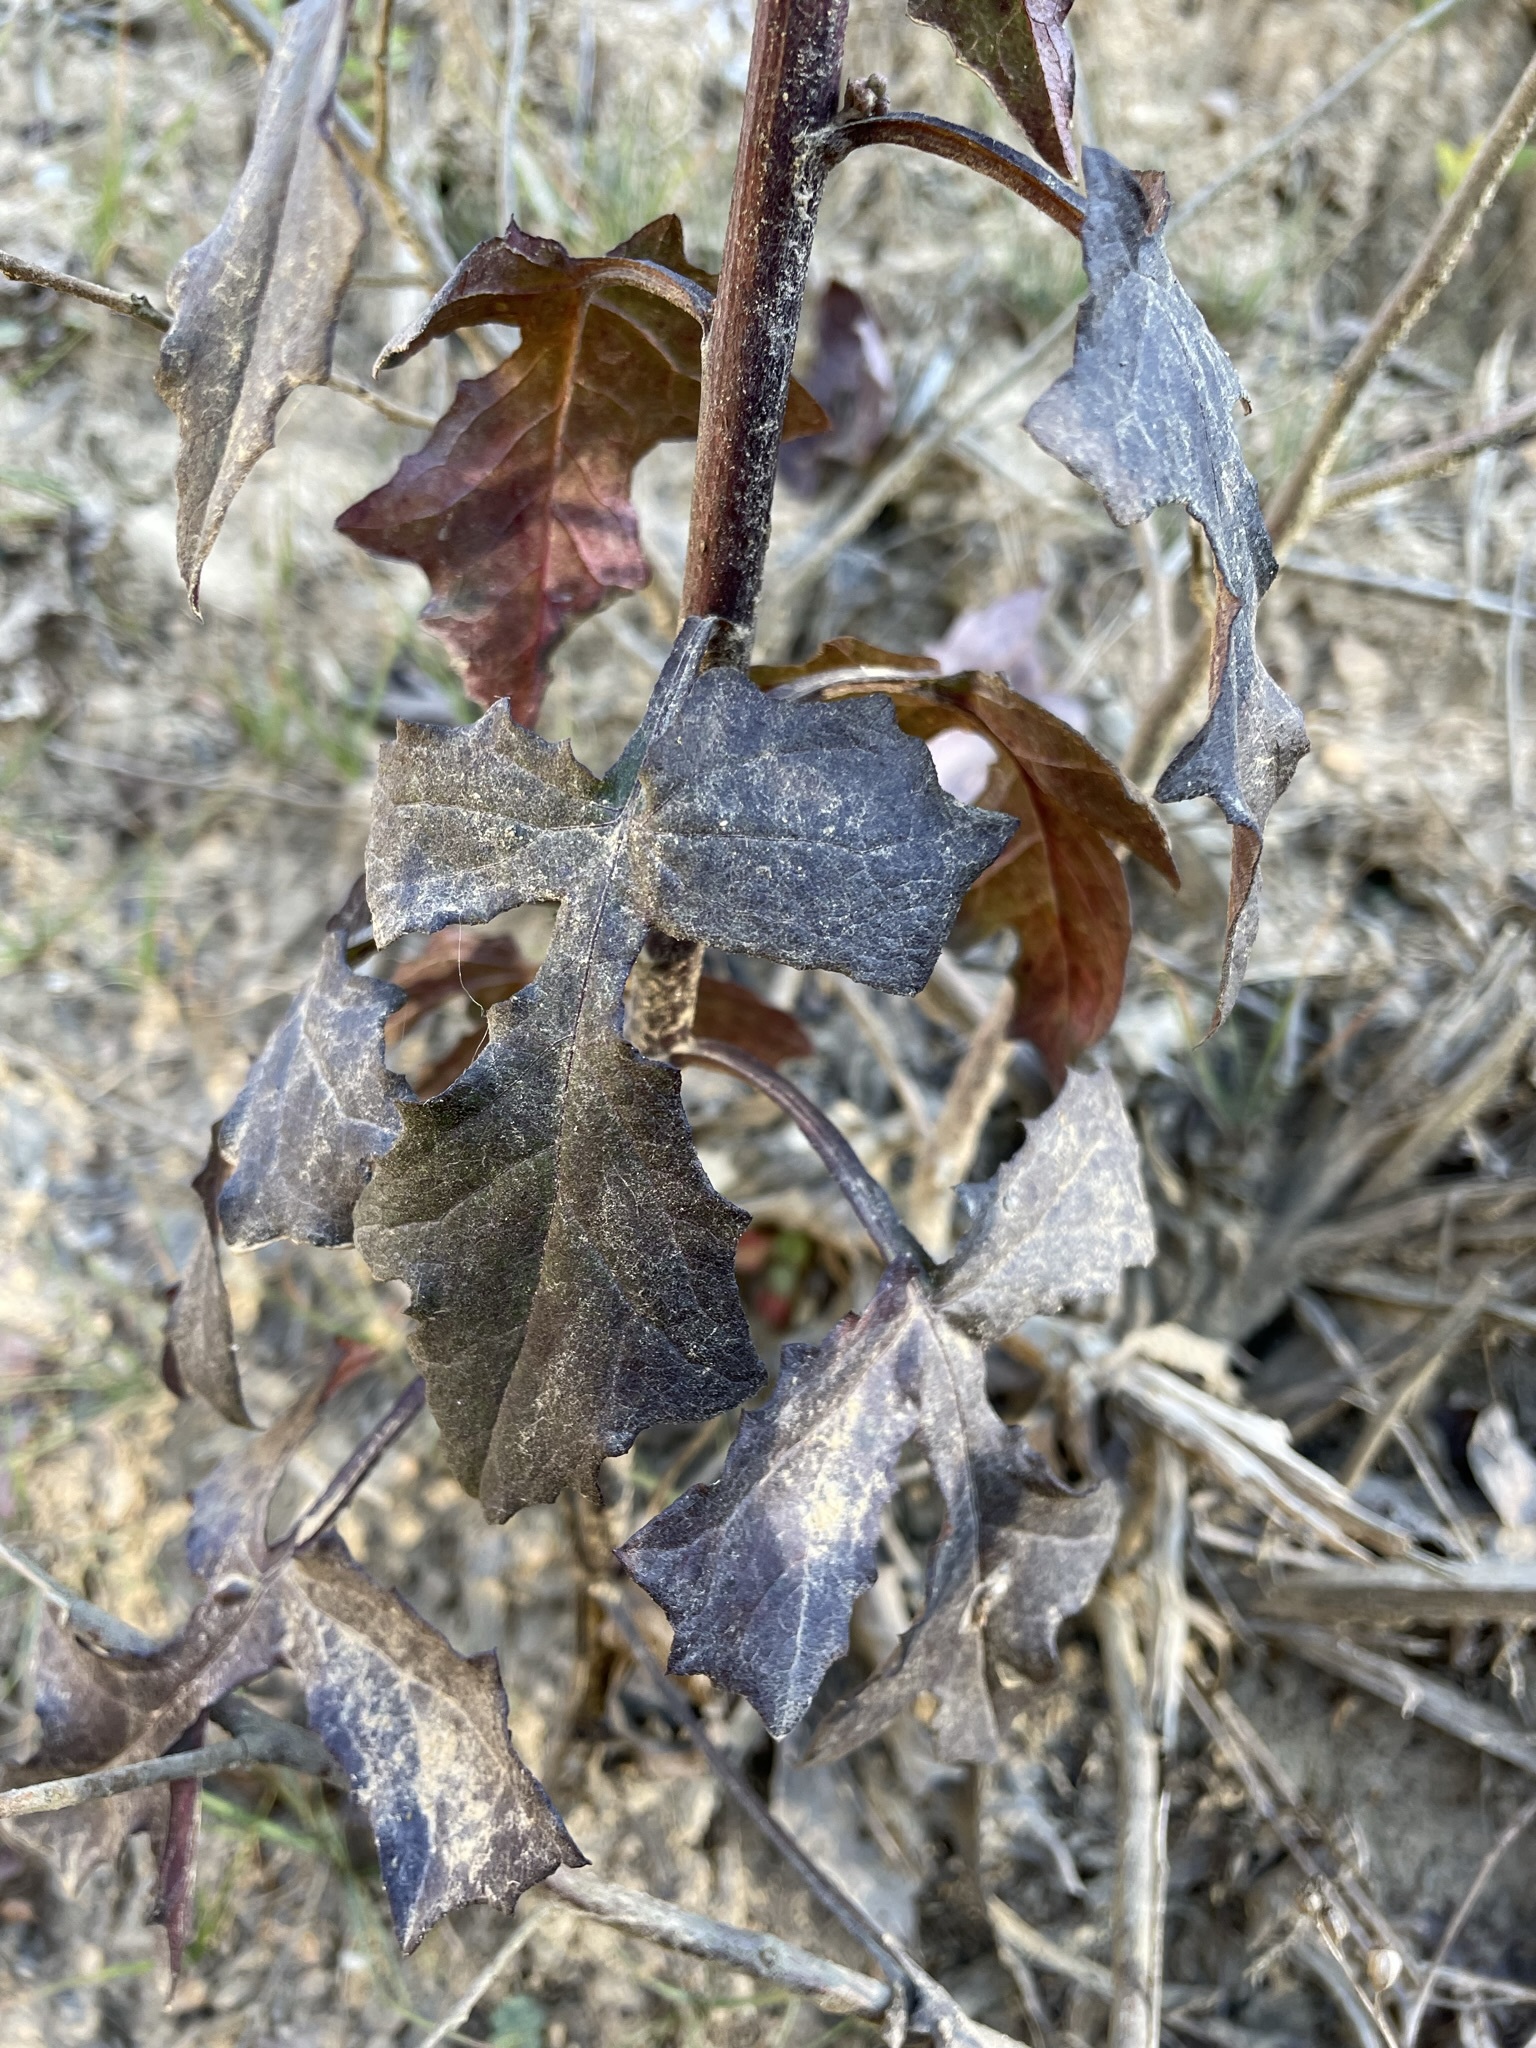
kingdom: Plantae
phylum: Tracheophyta
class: Magnoliopsida
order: Asterales
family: Asteraceae
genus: Nabalus
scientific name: Nabalus serpentarius
